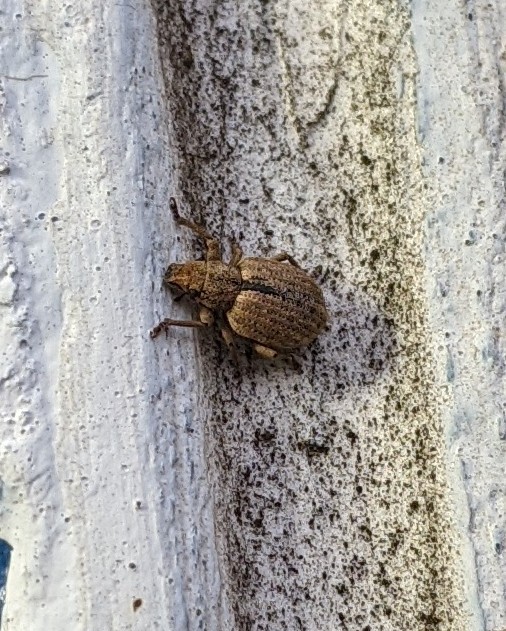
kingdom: Animalia
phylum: Arthropoda
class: Insecta
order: Coleoptera
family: Curculionidae
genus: Strophosoma
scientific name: Strophosoma melanogrammum
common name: Weevil
